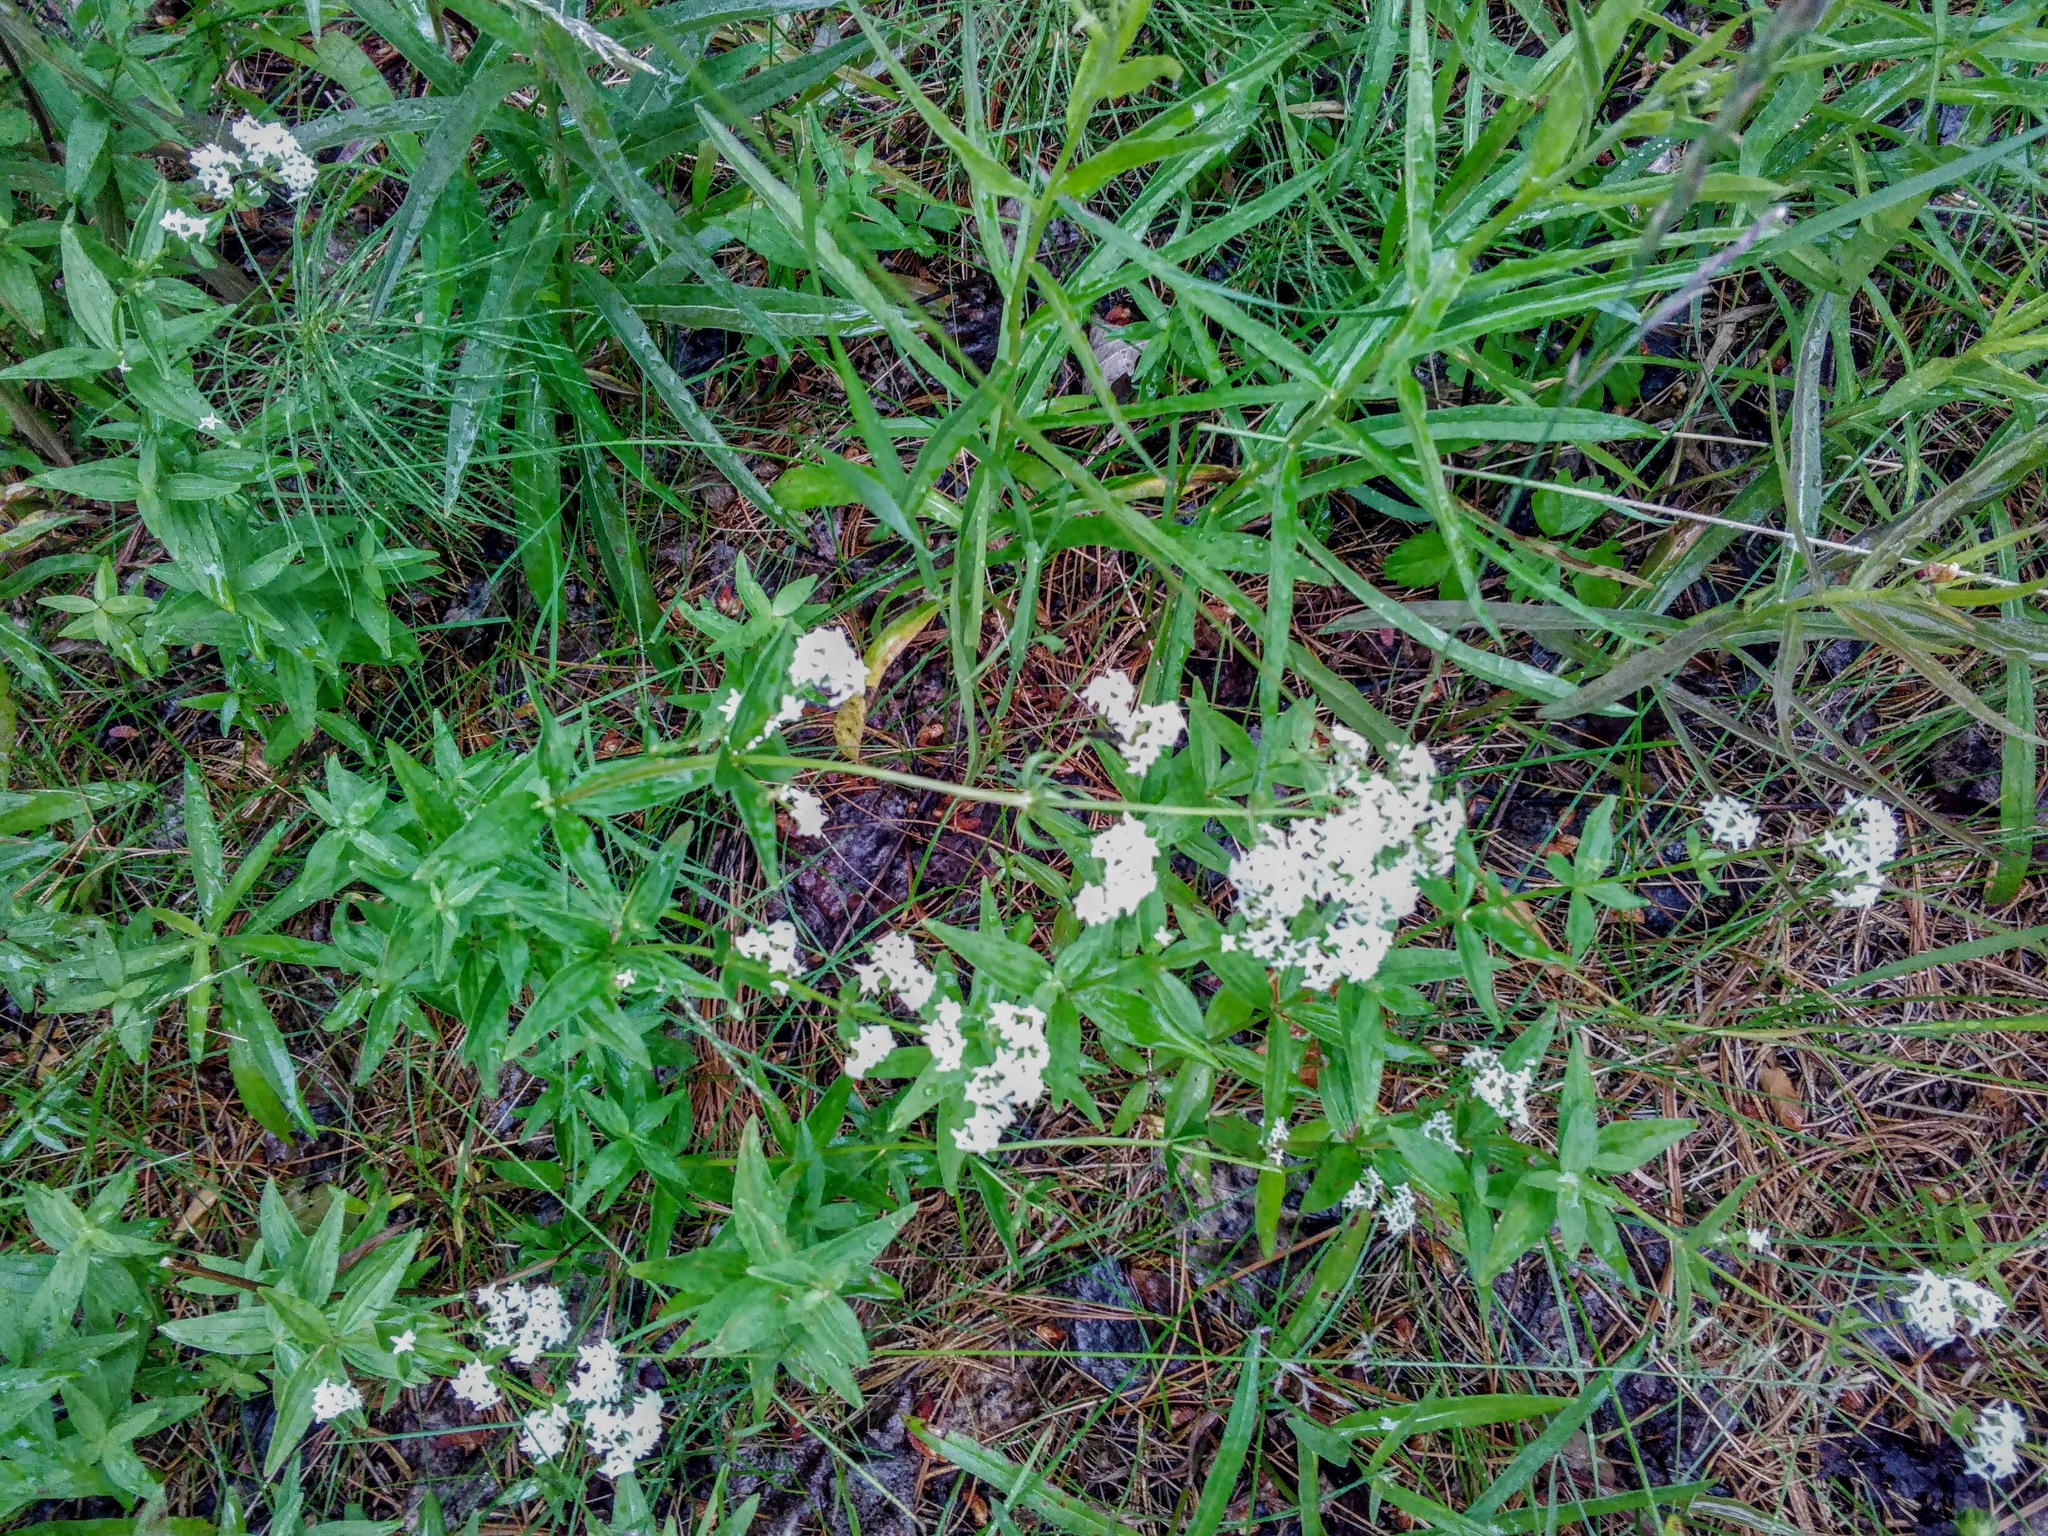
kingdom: Plantae
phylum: Tracheophyta
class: Magnoliopsida
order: Gentianales
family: Rubiaceae
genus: Galium
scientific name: Galium boreale
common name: Northern bedstraw
